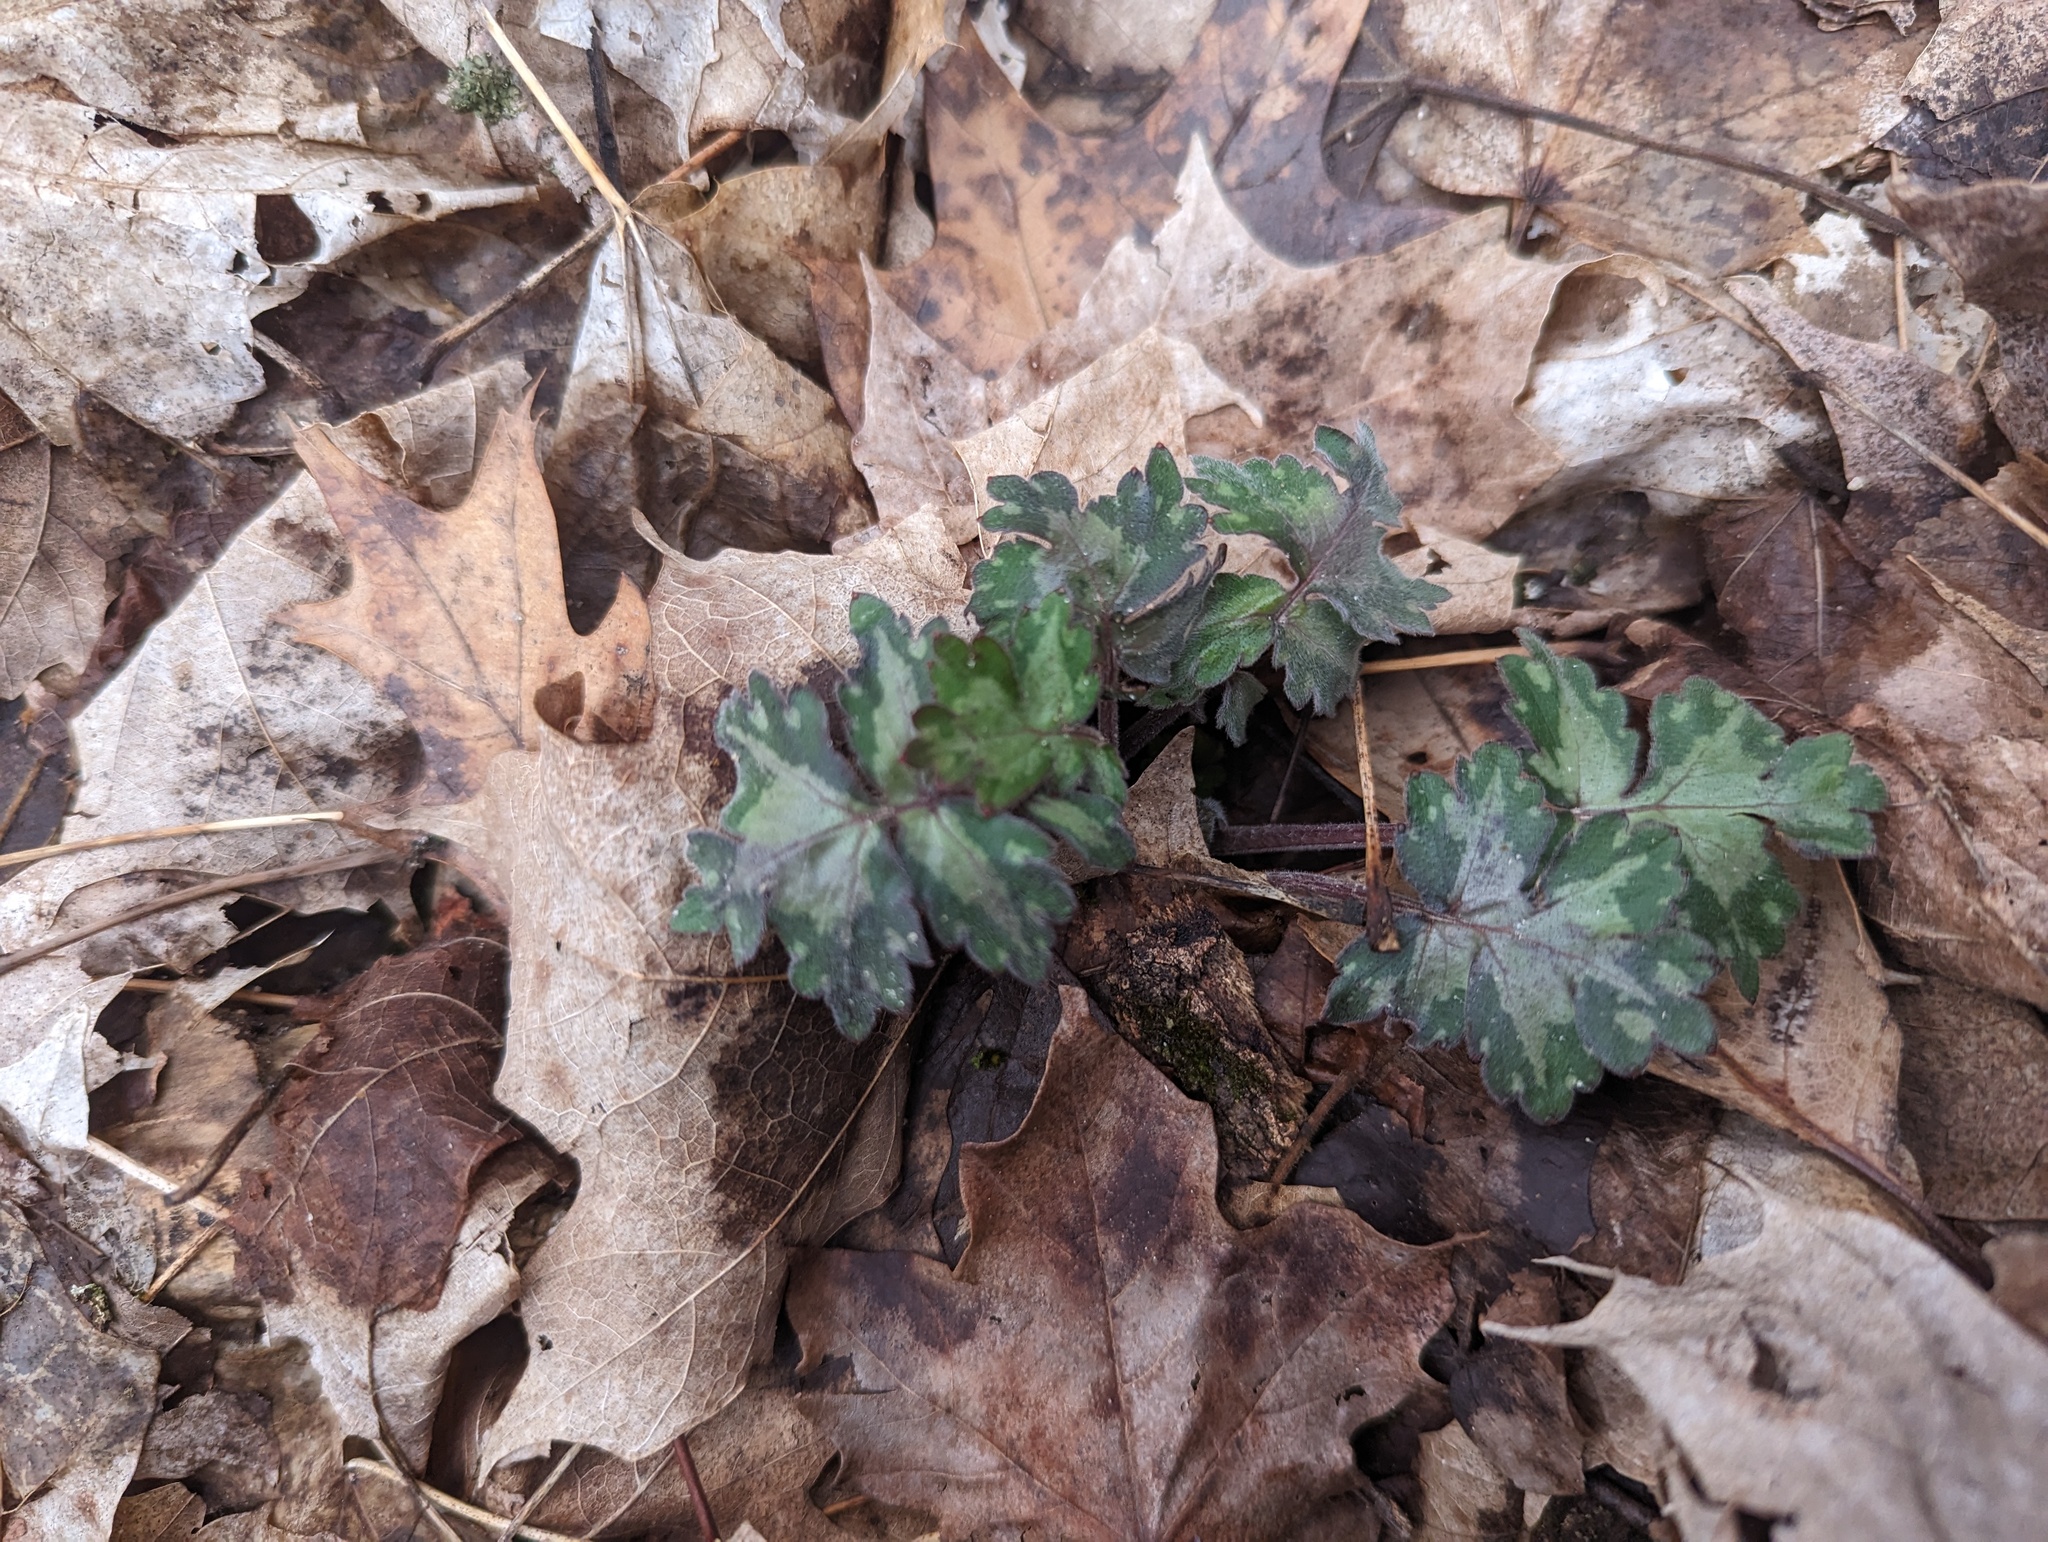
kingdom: Plantae
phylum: Tracheophyta
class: Magnoliopsida
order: Boraginales
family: Hydrophyllaceae
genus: Hydrophyllum
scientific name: Hydrophyllum appendiculatum
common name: Appendaged waterleaf
